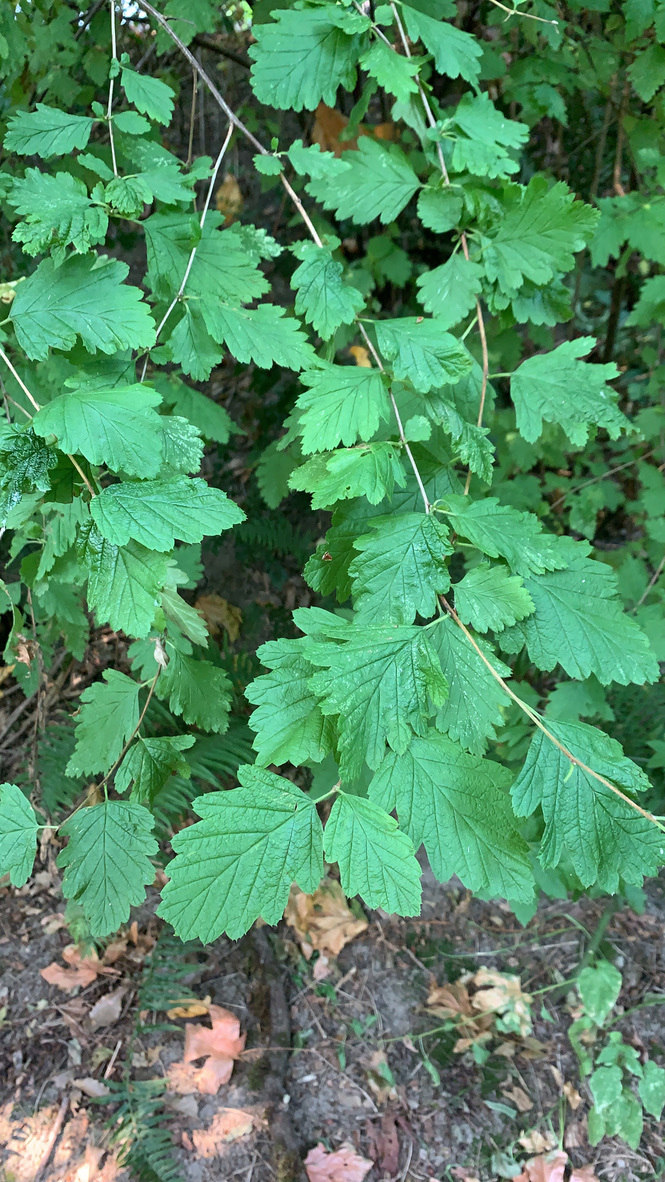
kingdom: Plantae
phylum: Tracheophyta
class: Magnoliopsida
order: Rosales
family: Rosaceae
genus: Holodiscus
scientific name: Holodiscus discolor
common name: Oceanspray
